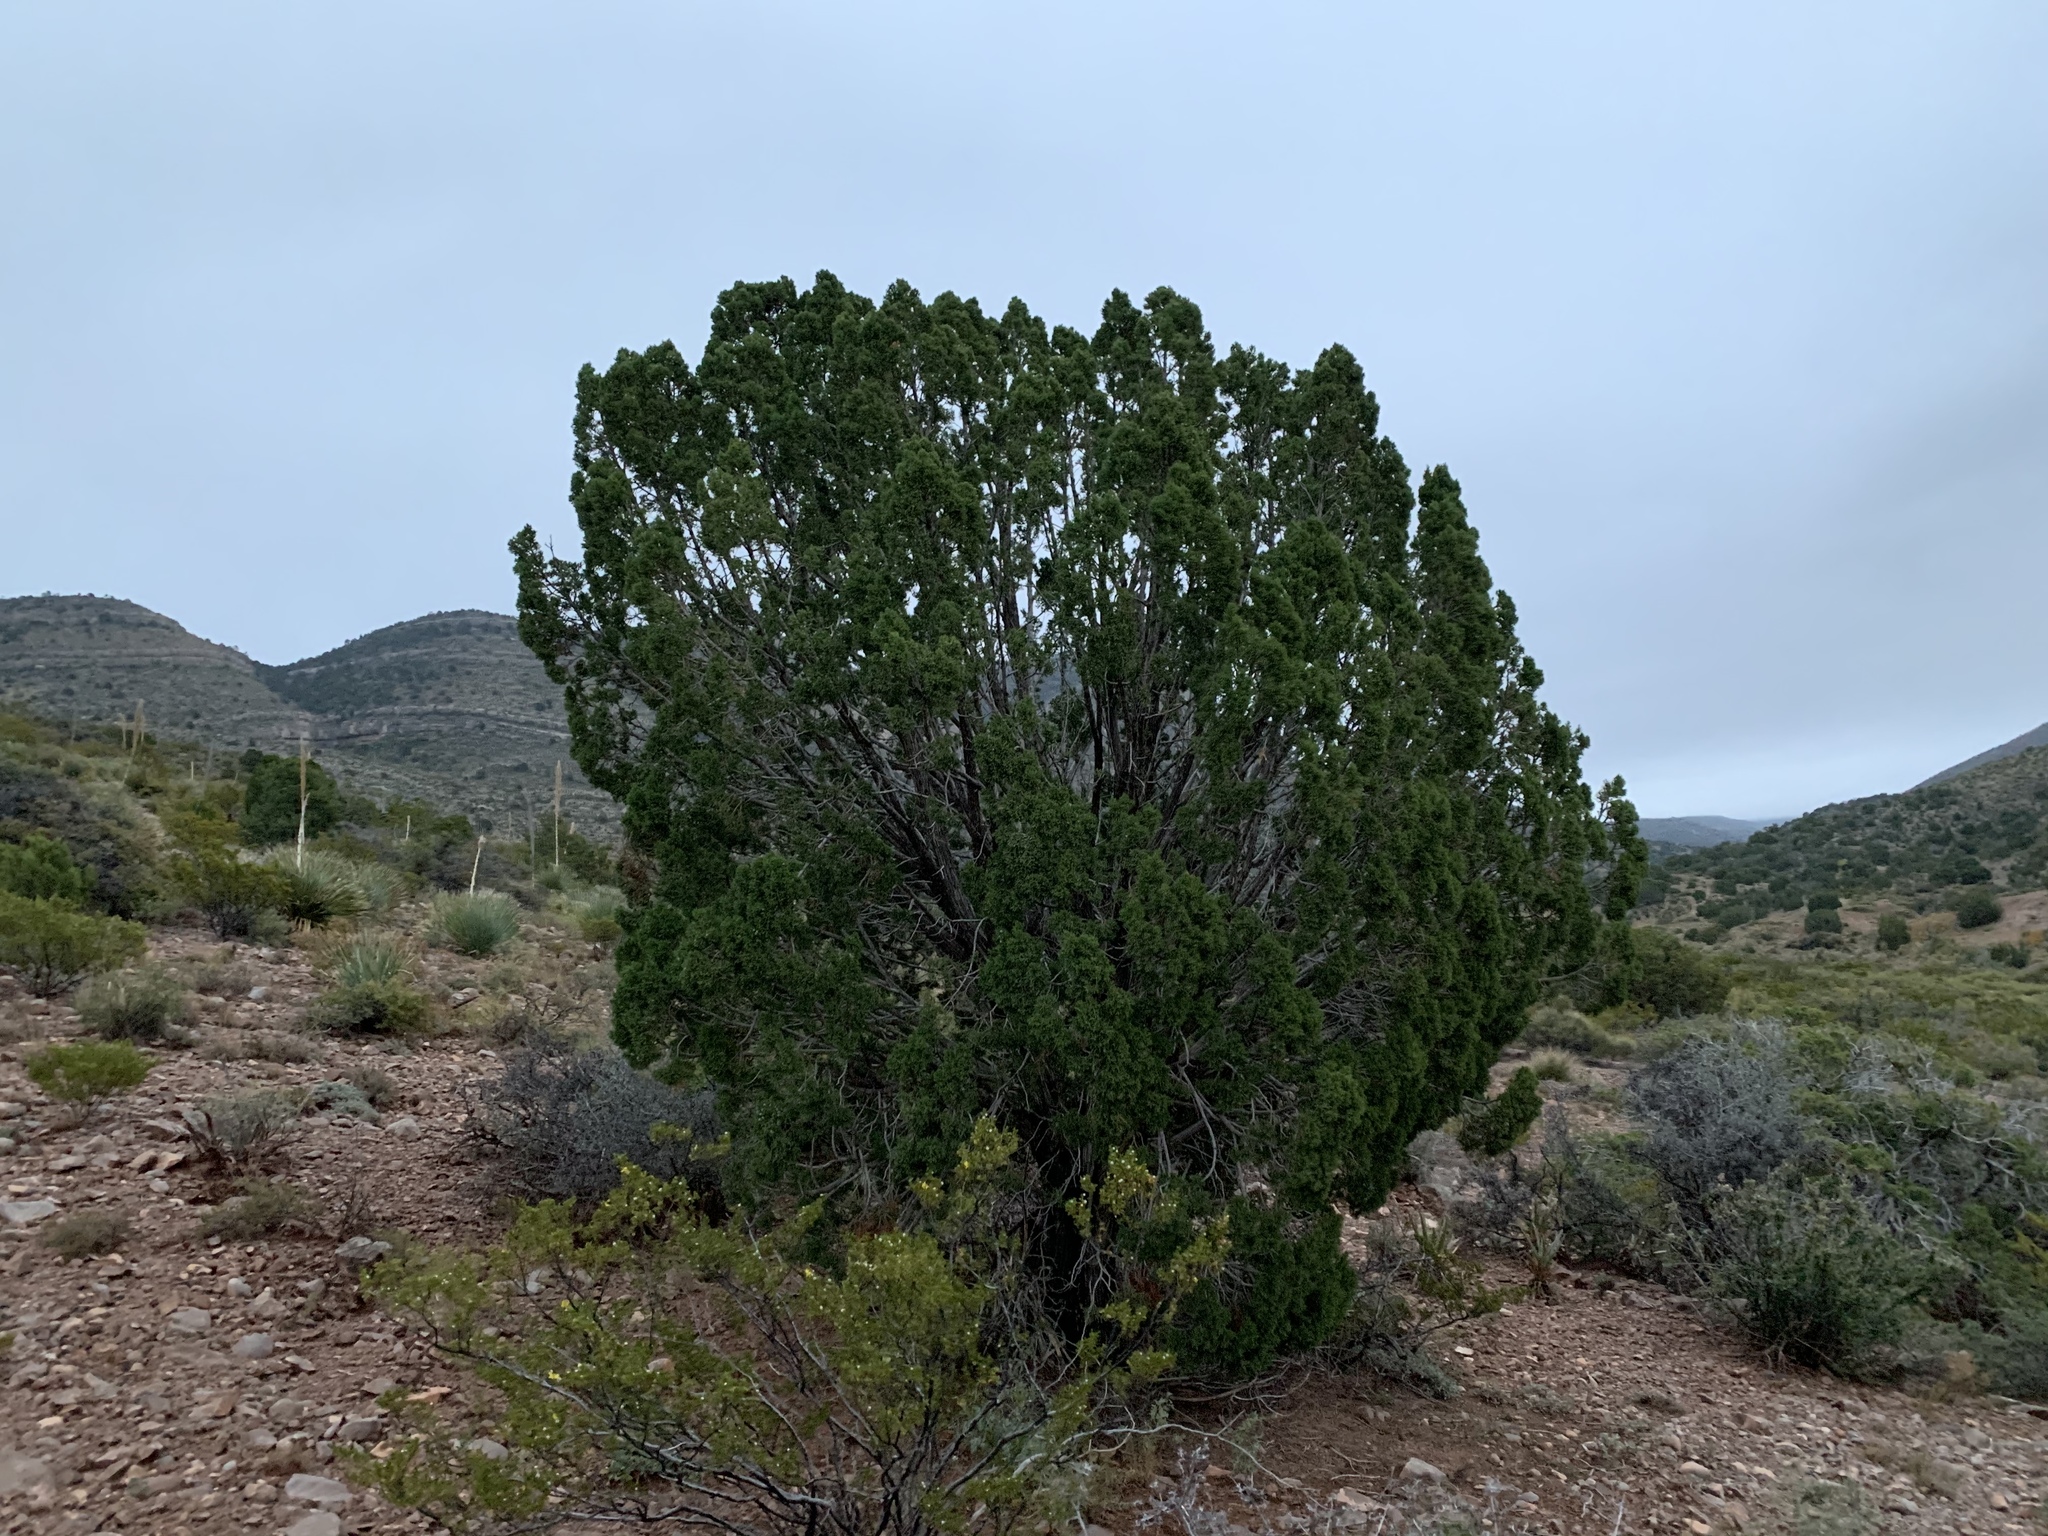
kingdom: Plantae
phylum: Tracheophyta
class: Pinopsida
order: Pinales
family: Cupressaceae
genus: Juniperus
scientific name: Juniperus monosperma
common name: One-seed juniper
